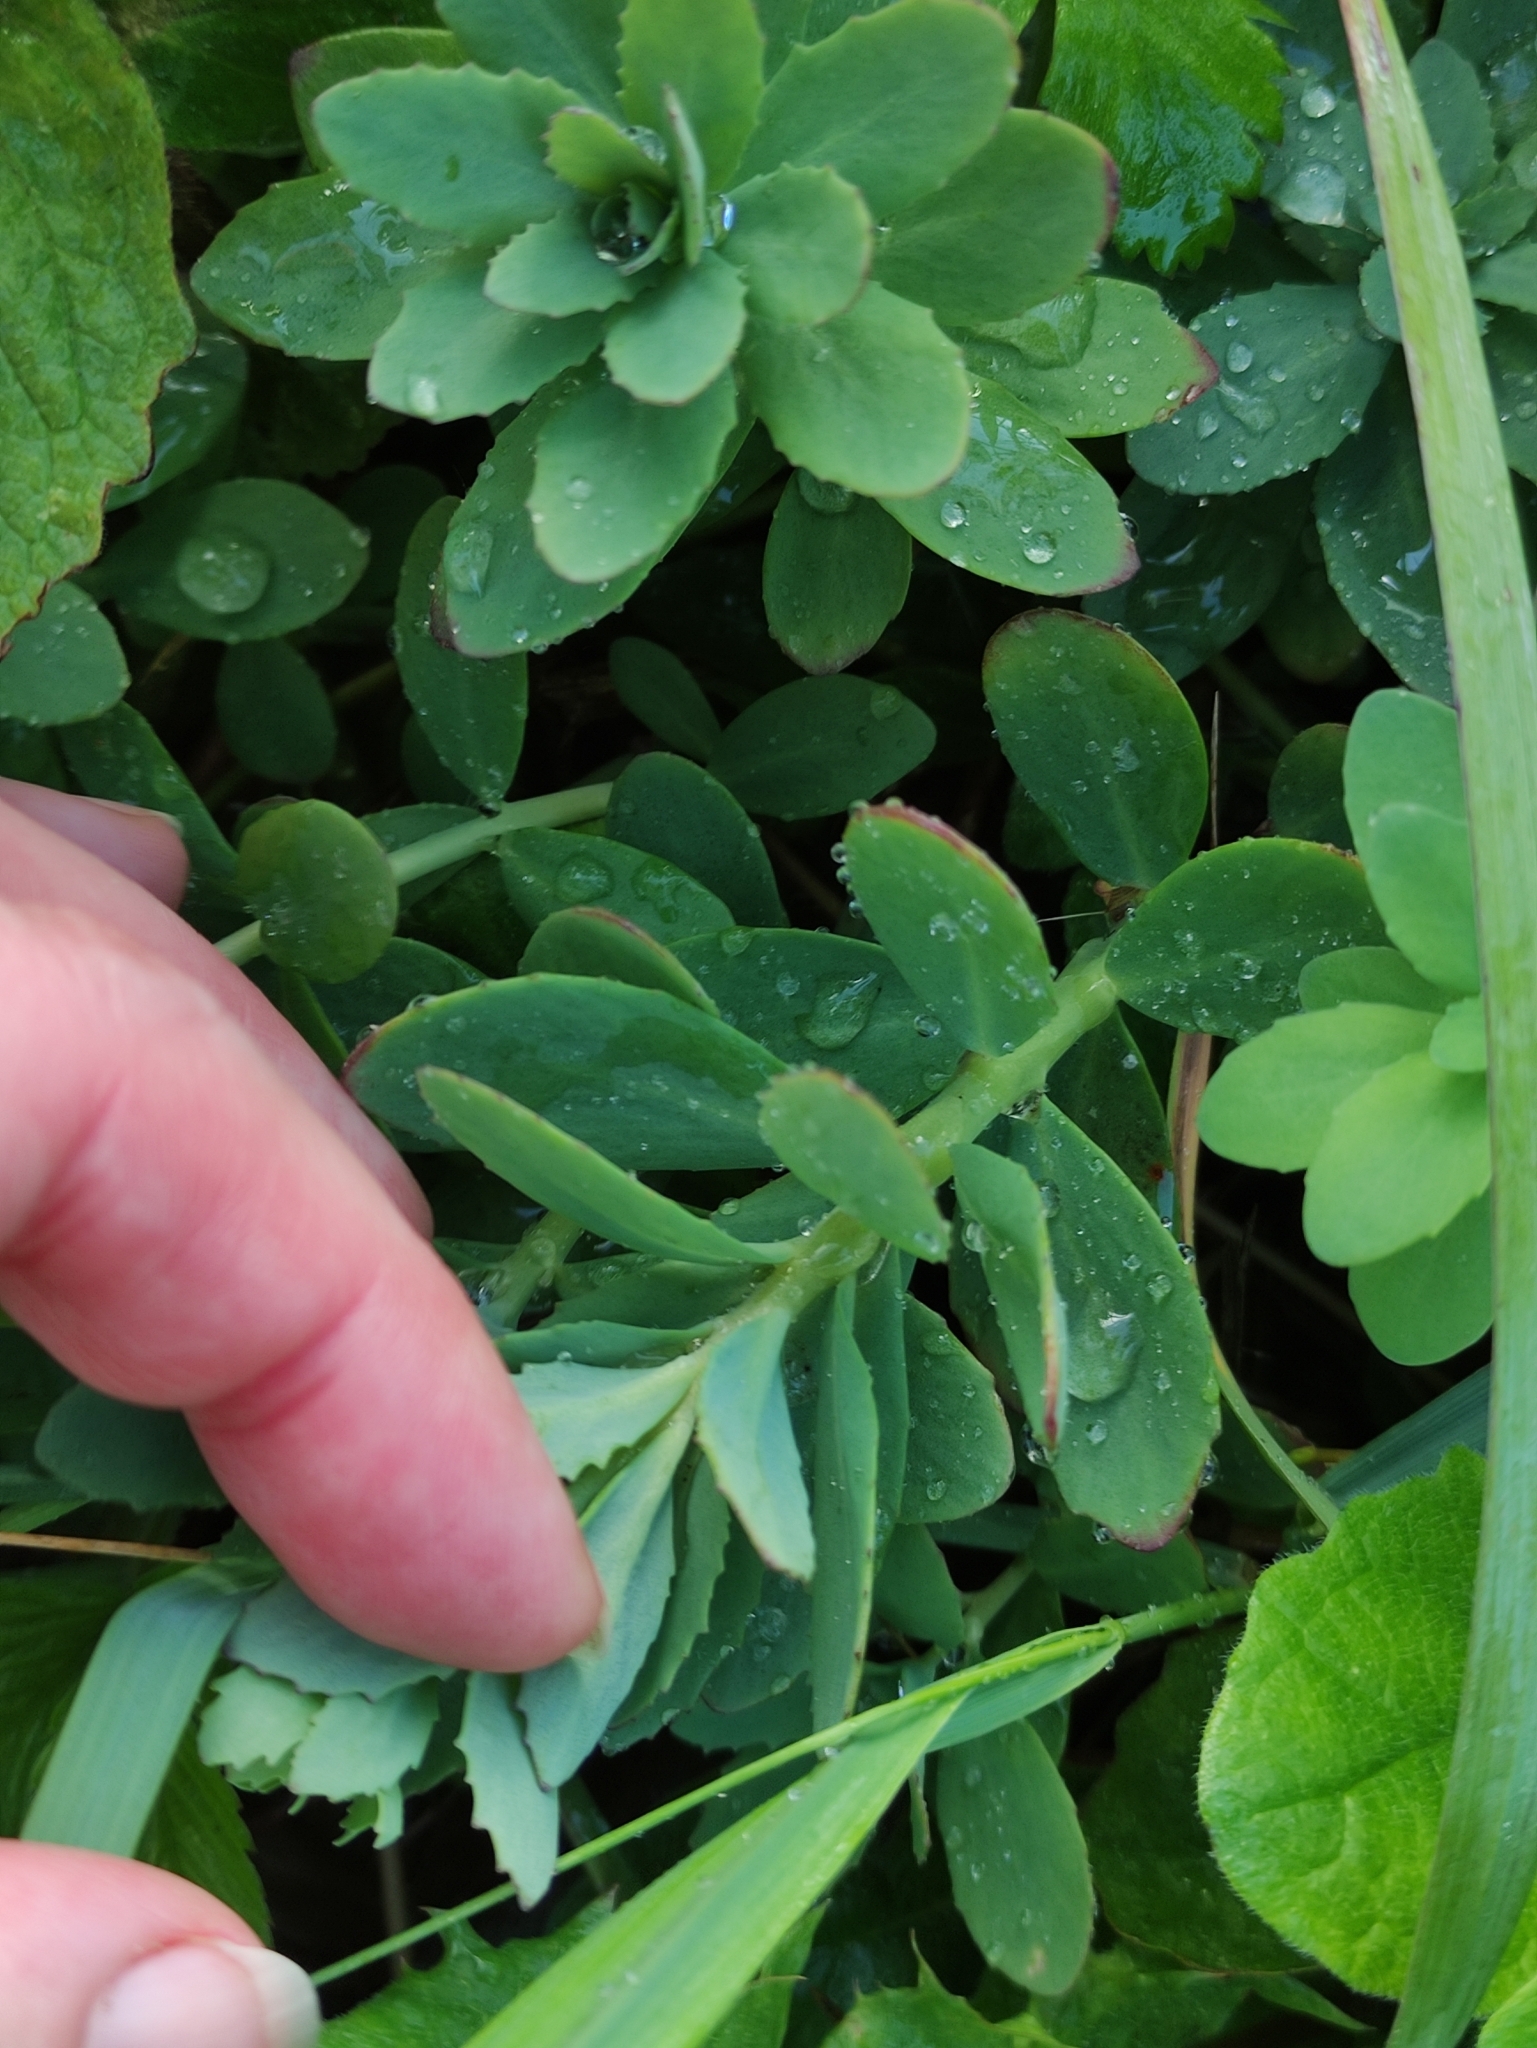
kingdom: Plantae
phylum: Tracheophyta
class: Magnoliopsida
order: Saxifragales
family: Crassulaceae
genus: Hylotelephium
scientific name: Hylotelephium telephium
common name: Live-forever
